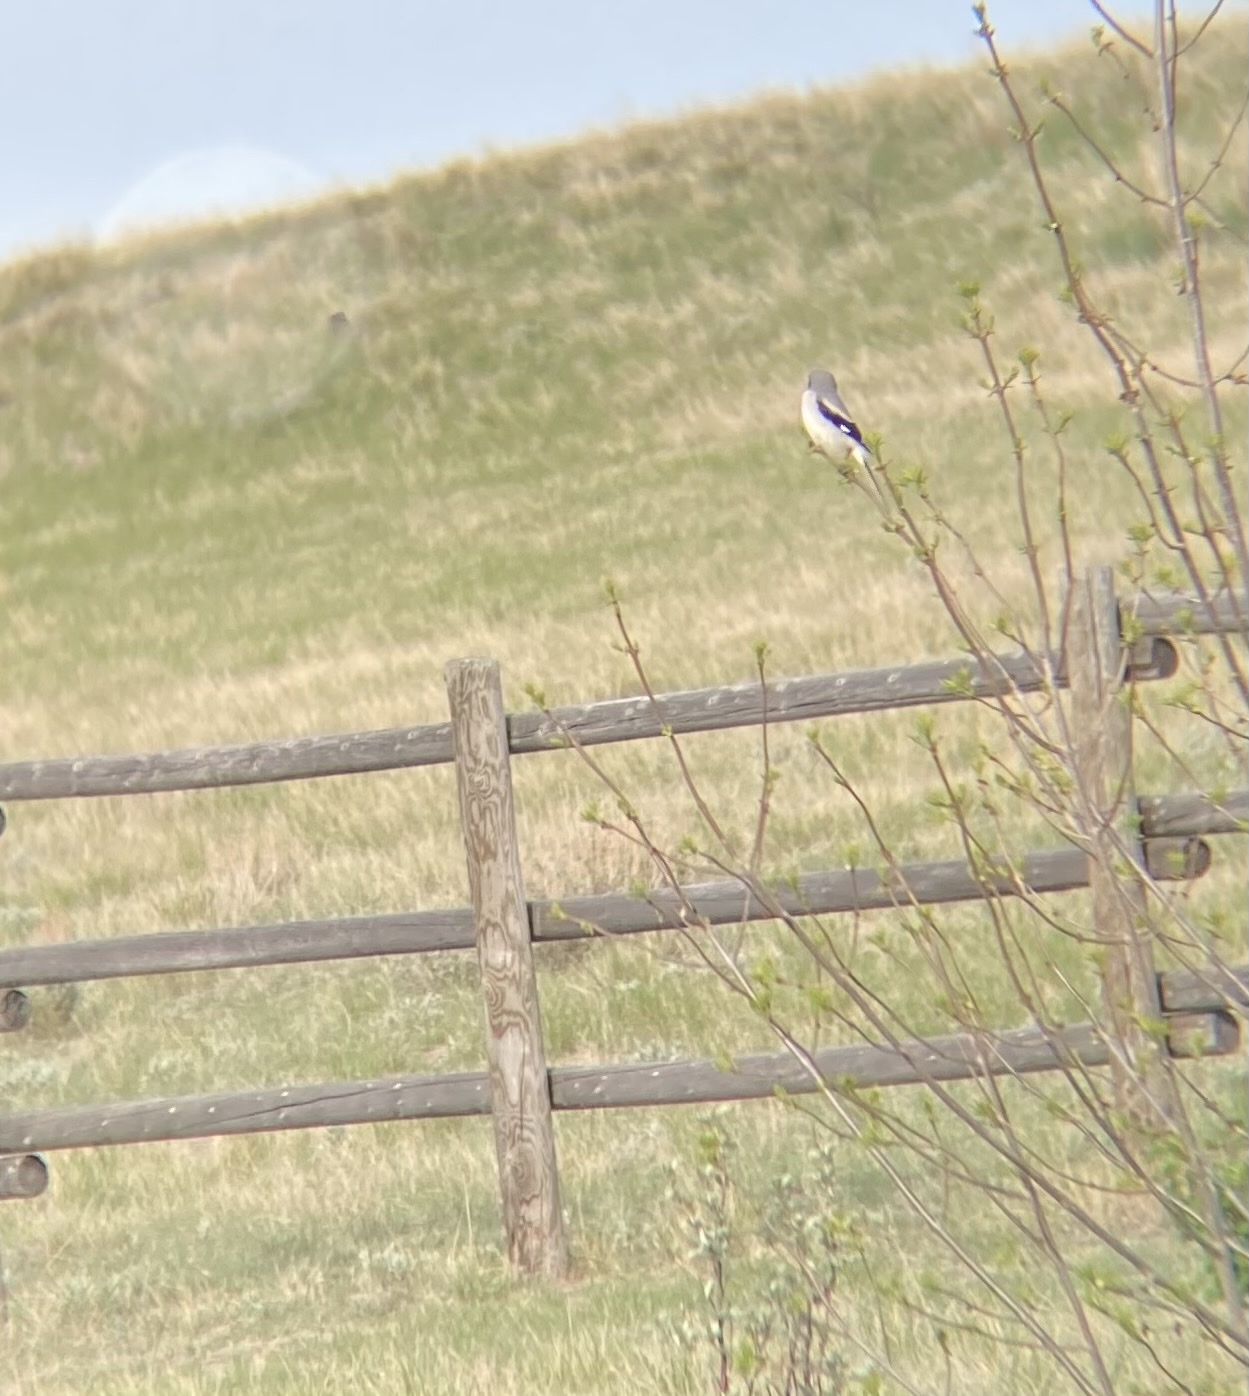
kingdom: Animalia
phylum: Chordata
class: Aves
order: Passeriformes
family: Laniidae
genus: Lanius
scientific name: Lanius ludovicianus
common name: Loggerhead shrike
